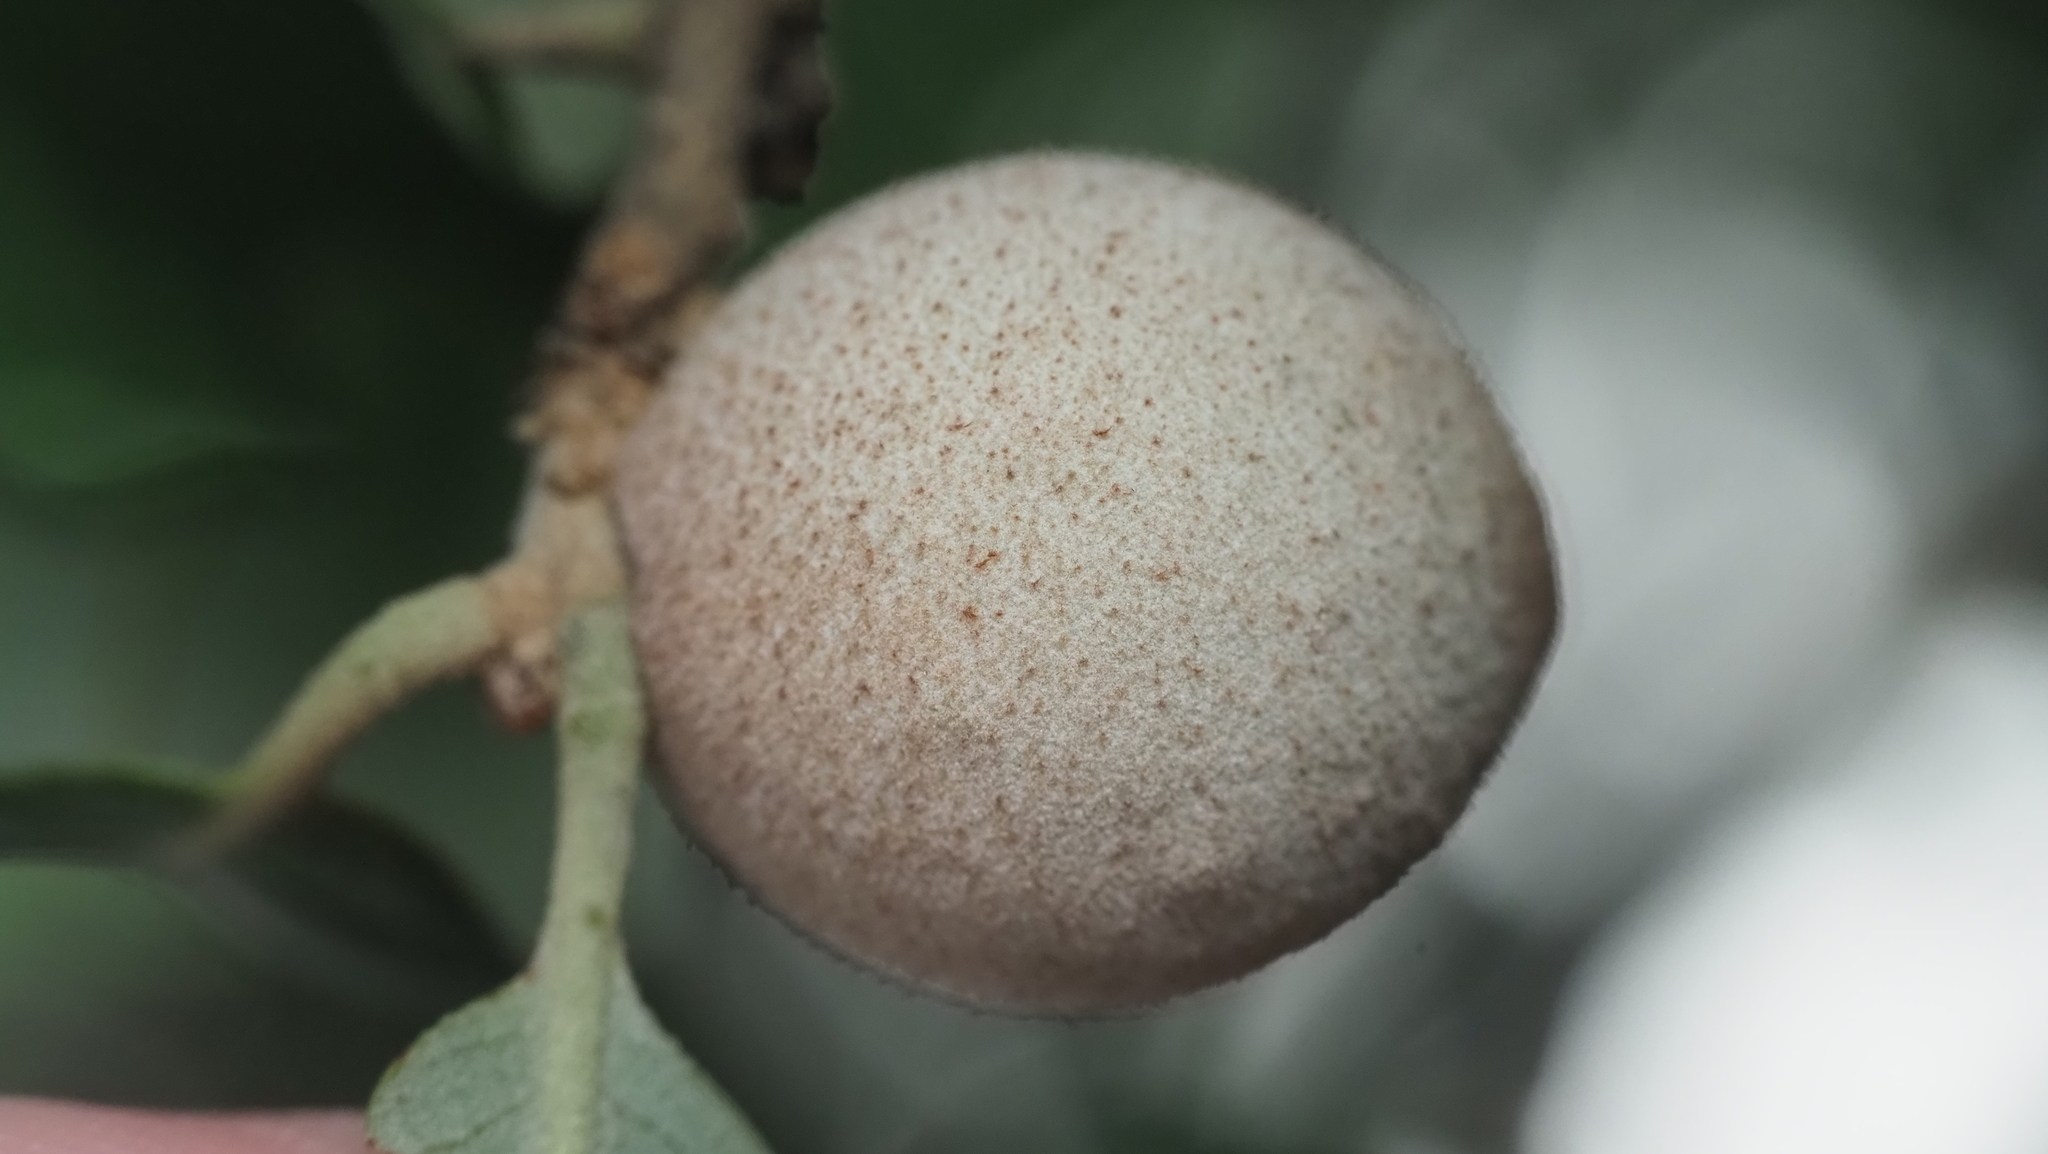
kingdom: Animalia
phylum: Arthropoda
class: Insecta
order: Hymenoptera
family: Cynipidae
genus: Disholcaspis
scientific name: Disholcaspis
